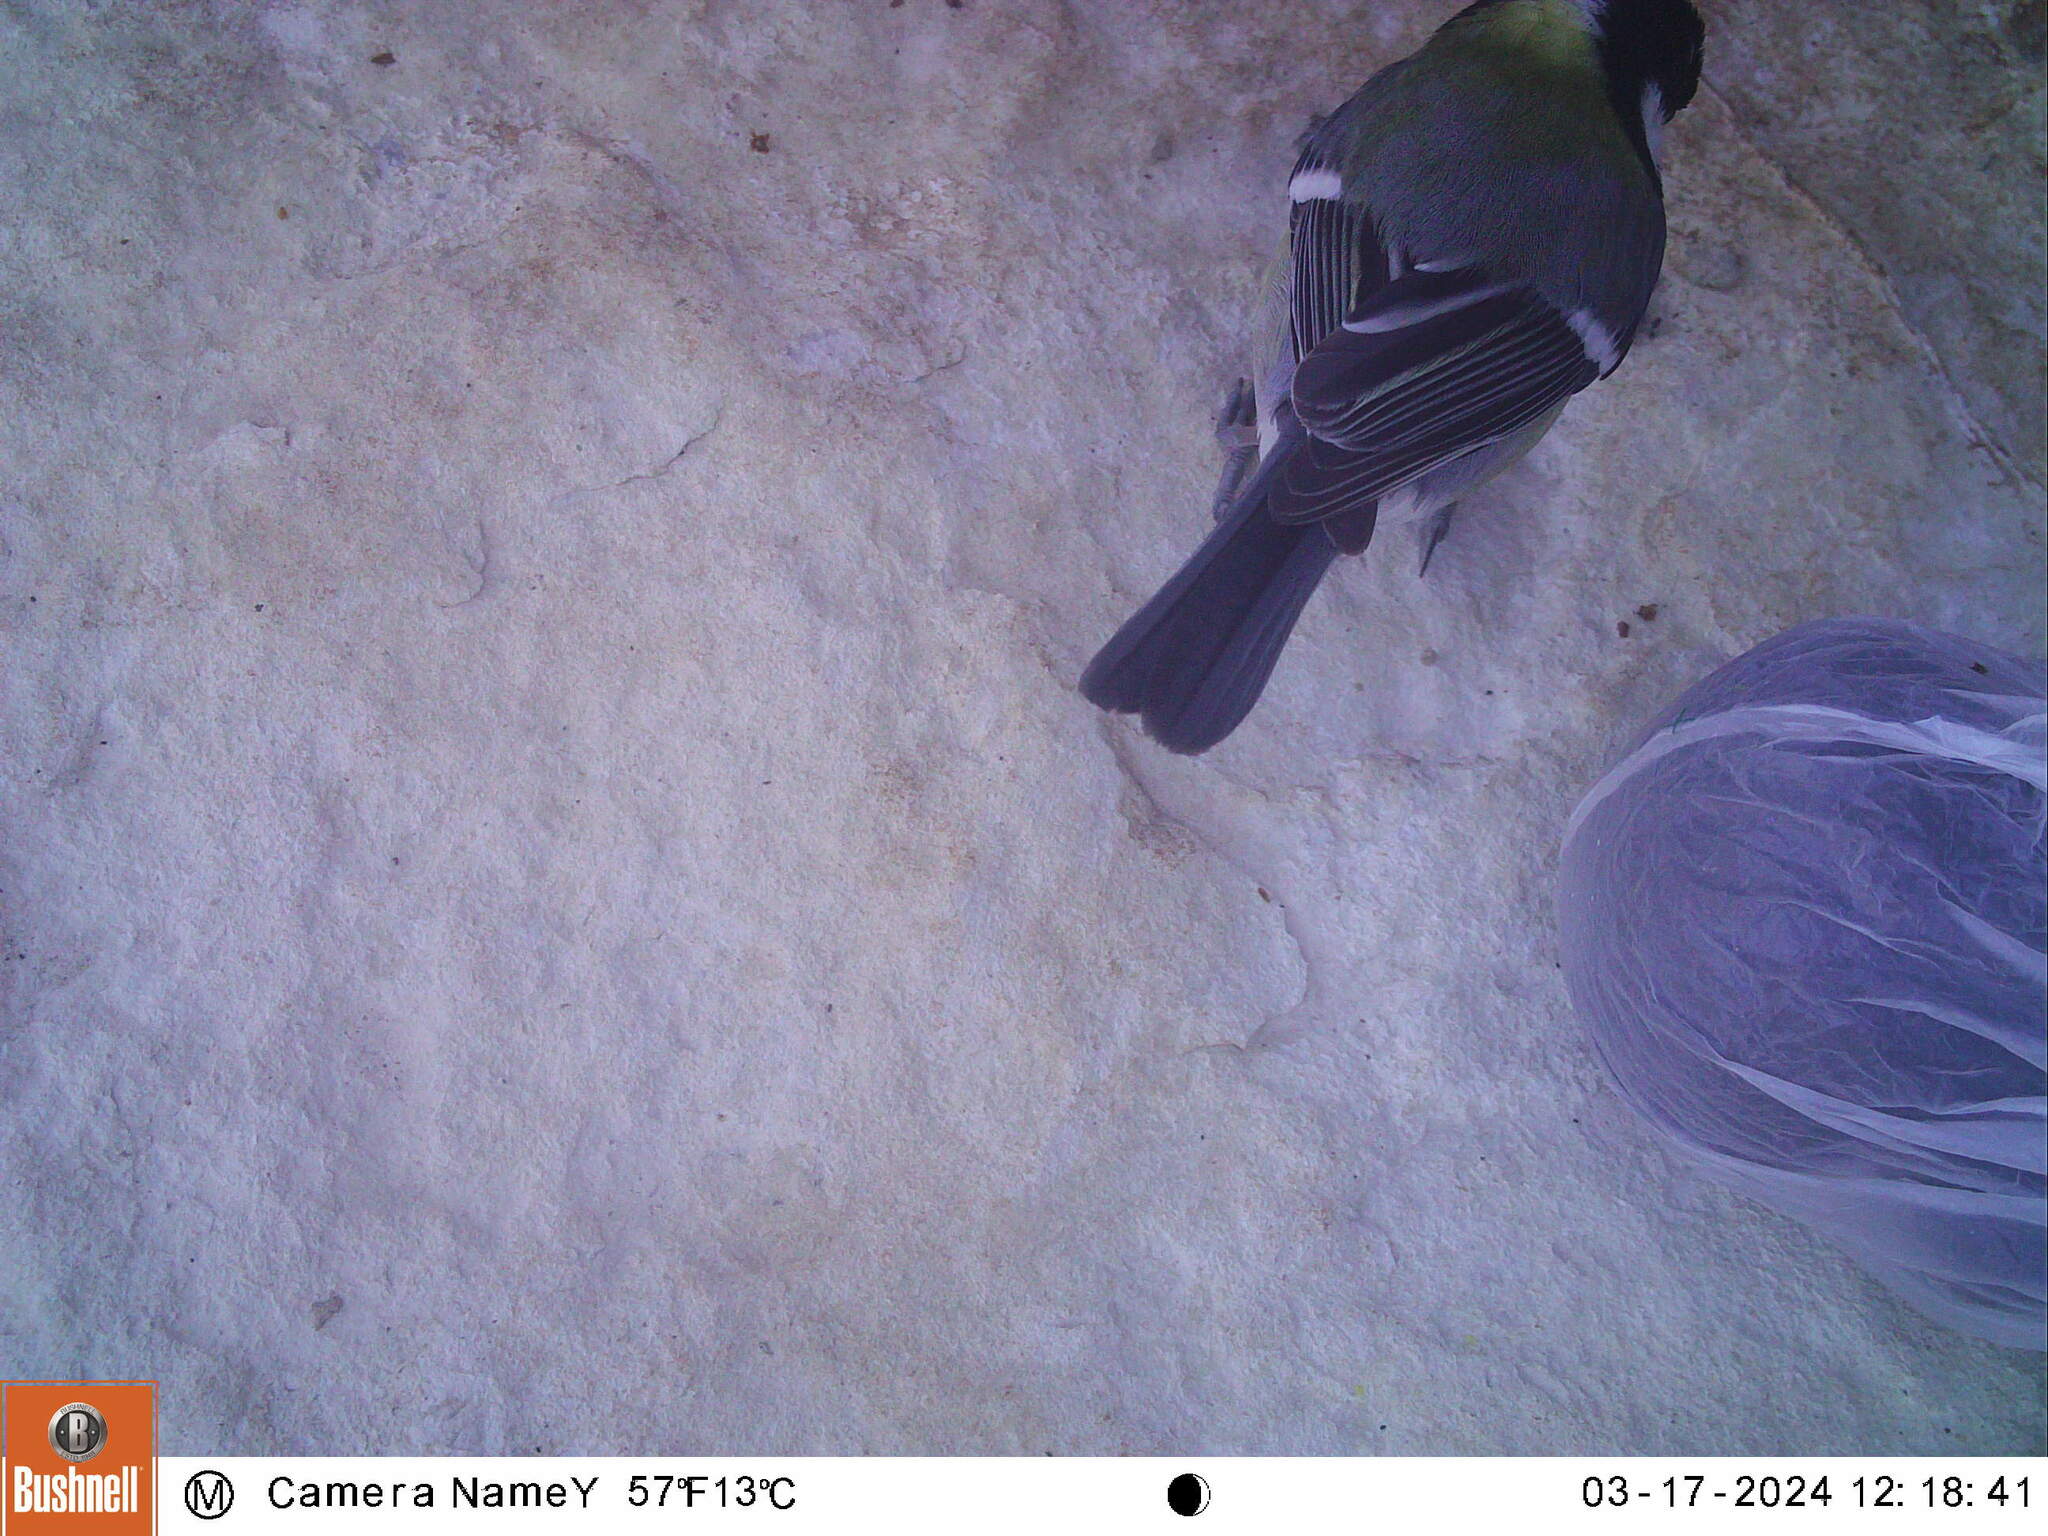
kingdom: Animalia
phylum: Chordata
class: Aves
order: Passeriformes
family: Paridae
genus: Parus
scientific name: Parus major
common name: Great tit
